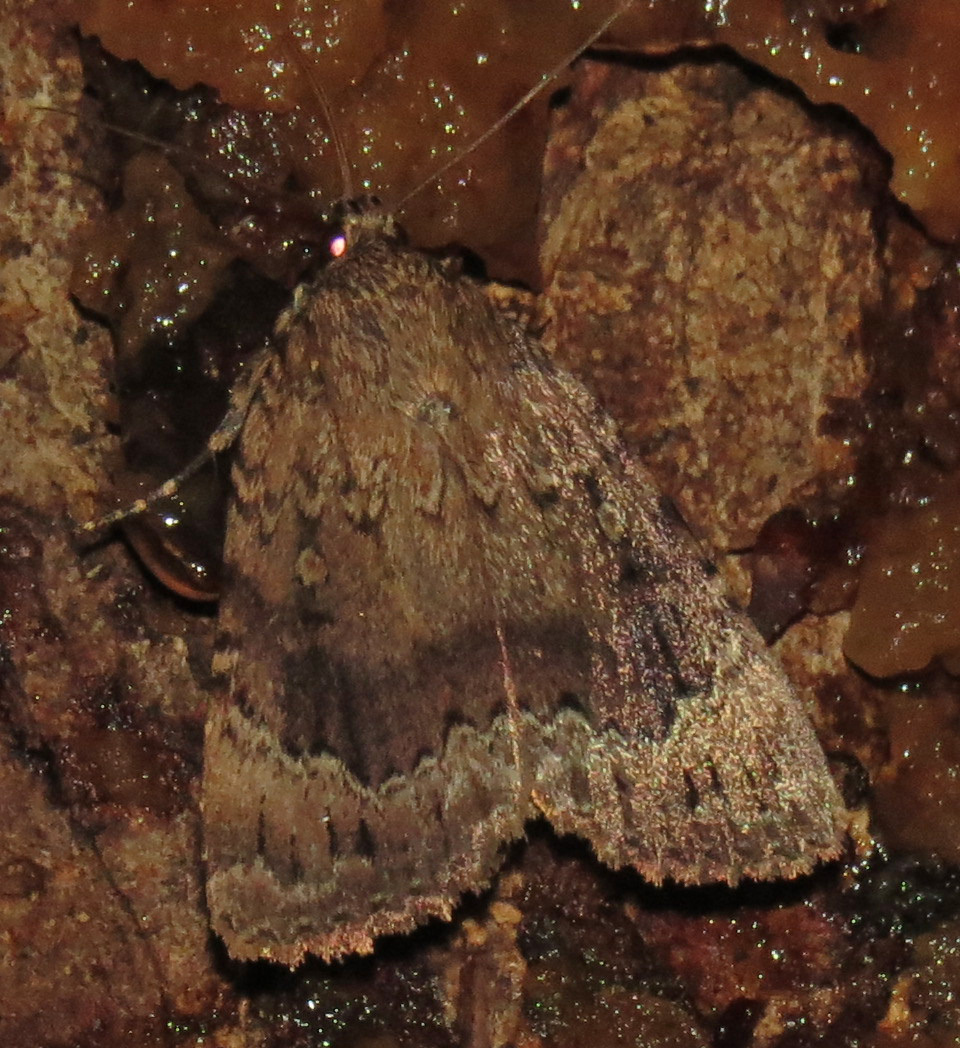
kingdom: Animalia
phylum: Arthropoda
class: Insecta
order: Lepidoptera
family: Noctuidae
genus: Amphipyra
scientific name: Amphipyra pyramidoides
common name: American copper underwing
